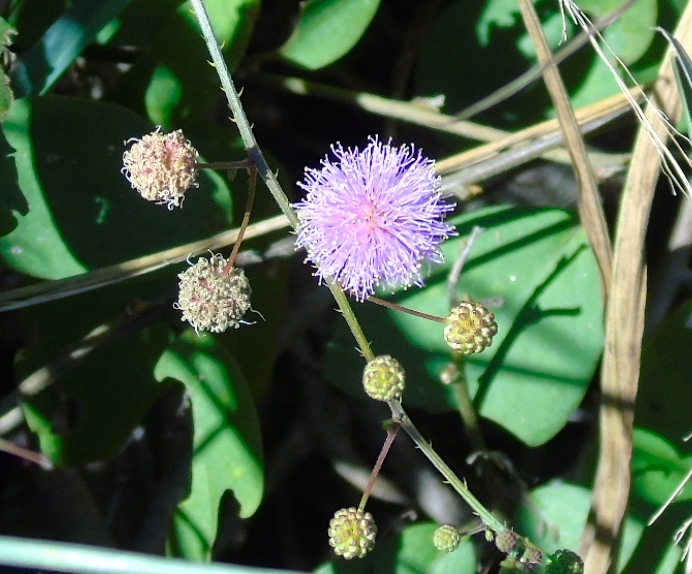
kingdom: Plantae
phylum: Tracheophyta
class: Magnoliopsida
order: Fabales
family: Fabaceae
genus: Mimosa
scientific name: Mimosa quadrivalvis
